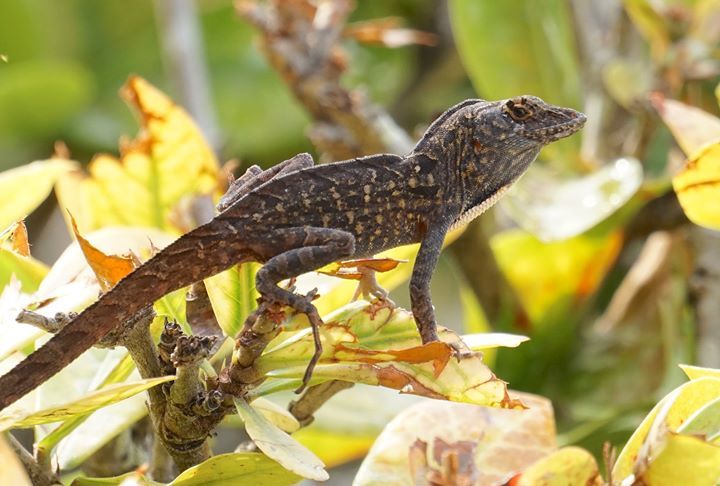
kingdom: Animalia
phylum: Chordata
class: Squamata
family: Dactyloidae
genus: Anolis
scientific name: Anolis sagrei
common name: Brown anole
